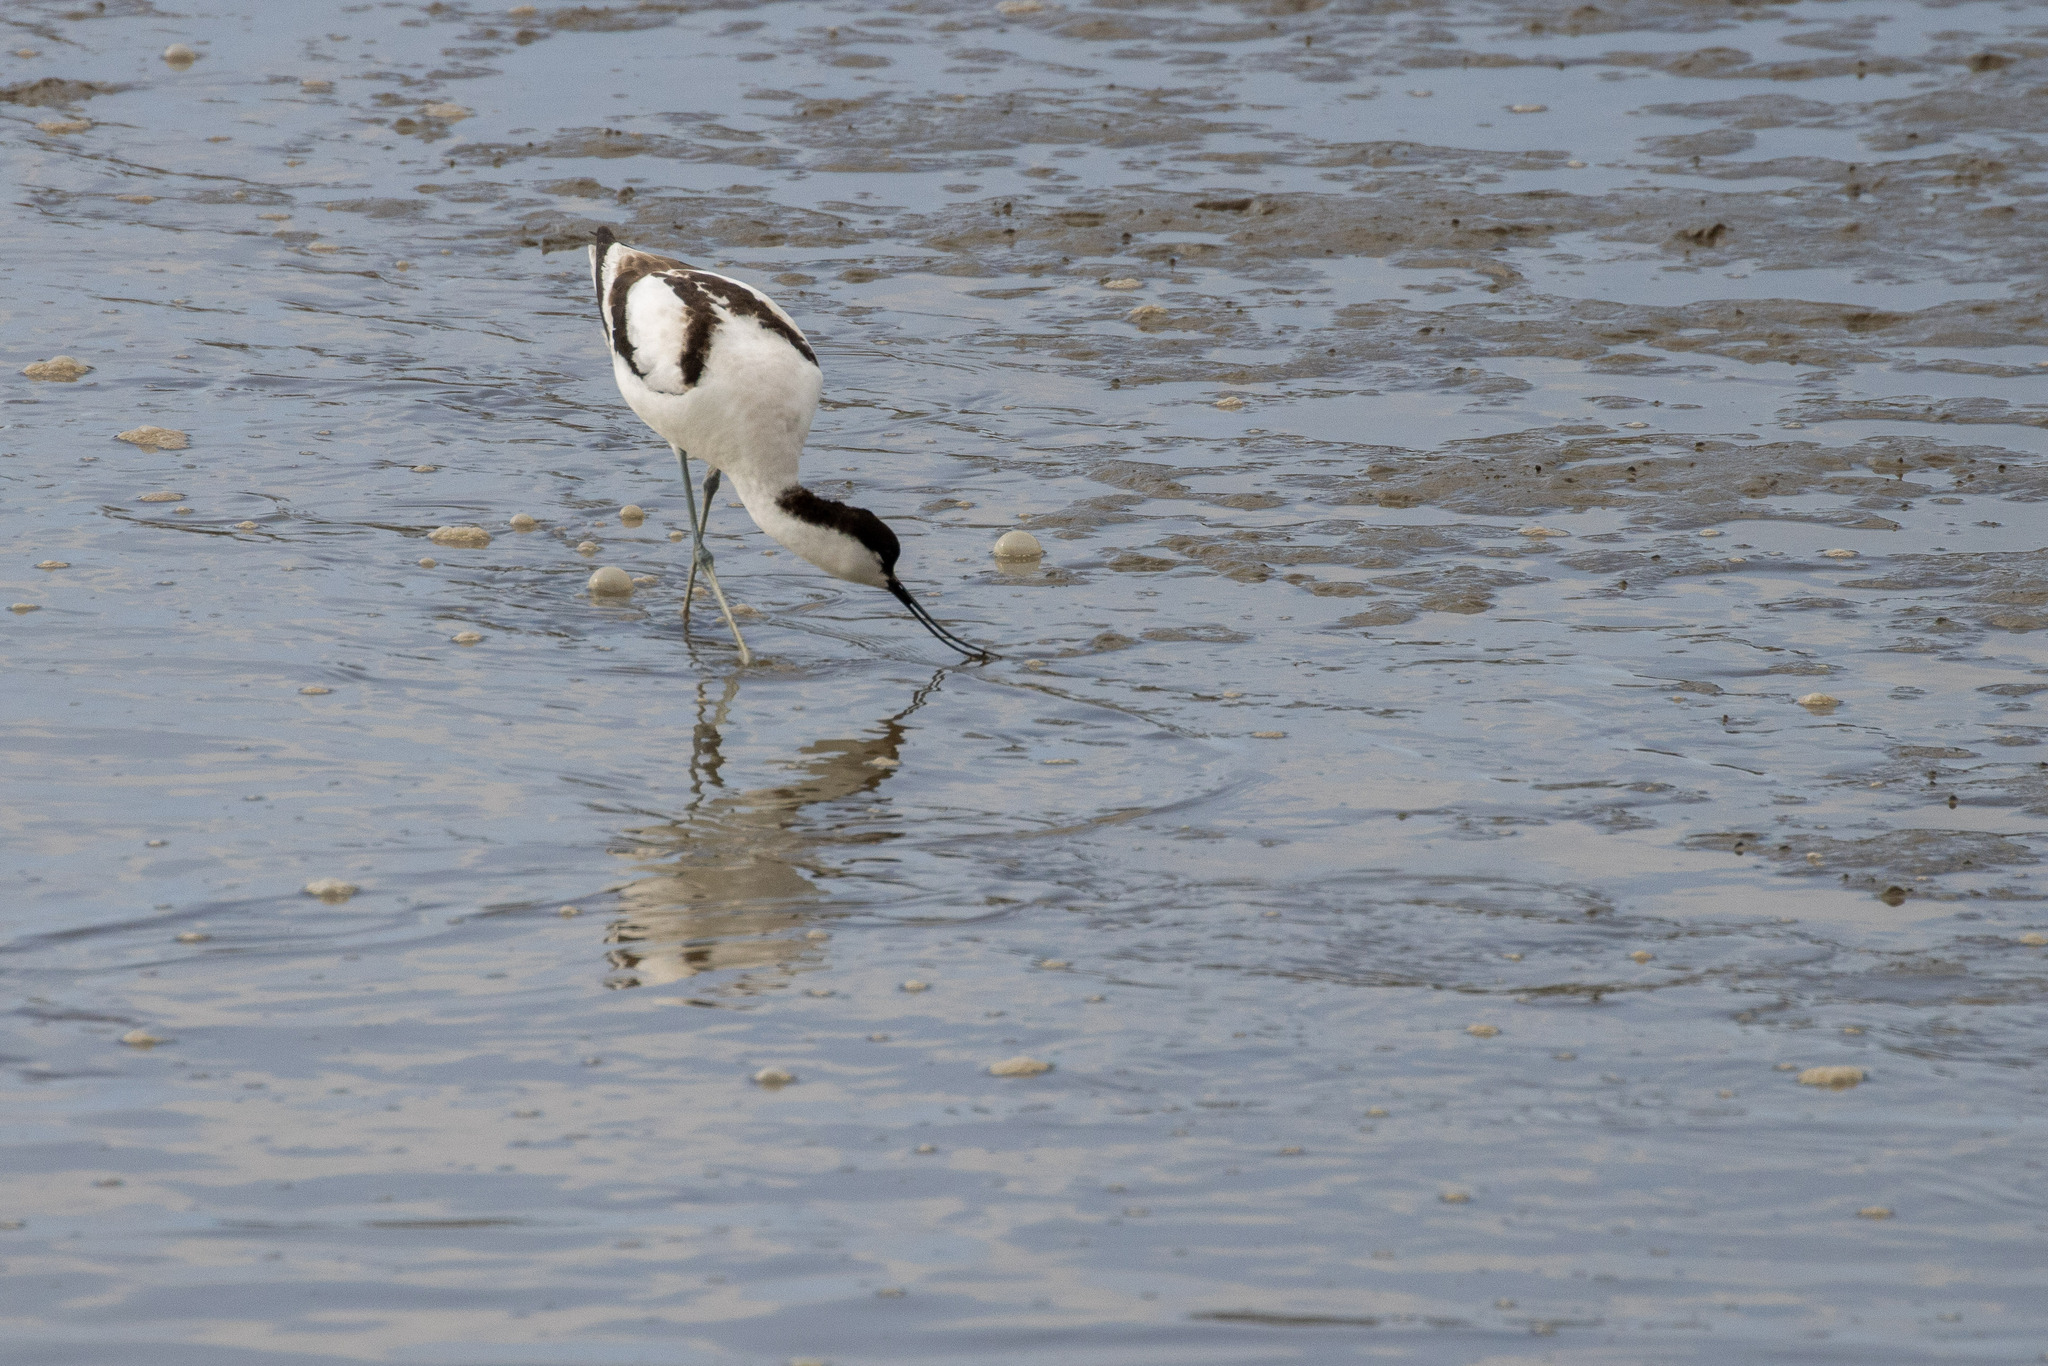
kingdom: Animalia
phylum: Chordata
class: Aves
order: Charadriiformes
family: Recurvirostridae
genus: Recurvirostra
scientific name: Recurvirostra avosetta
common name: Pied avocet
